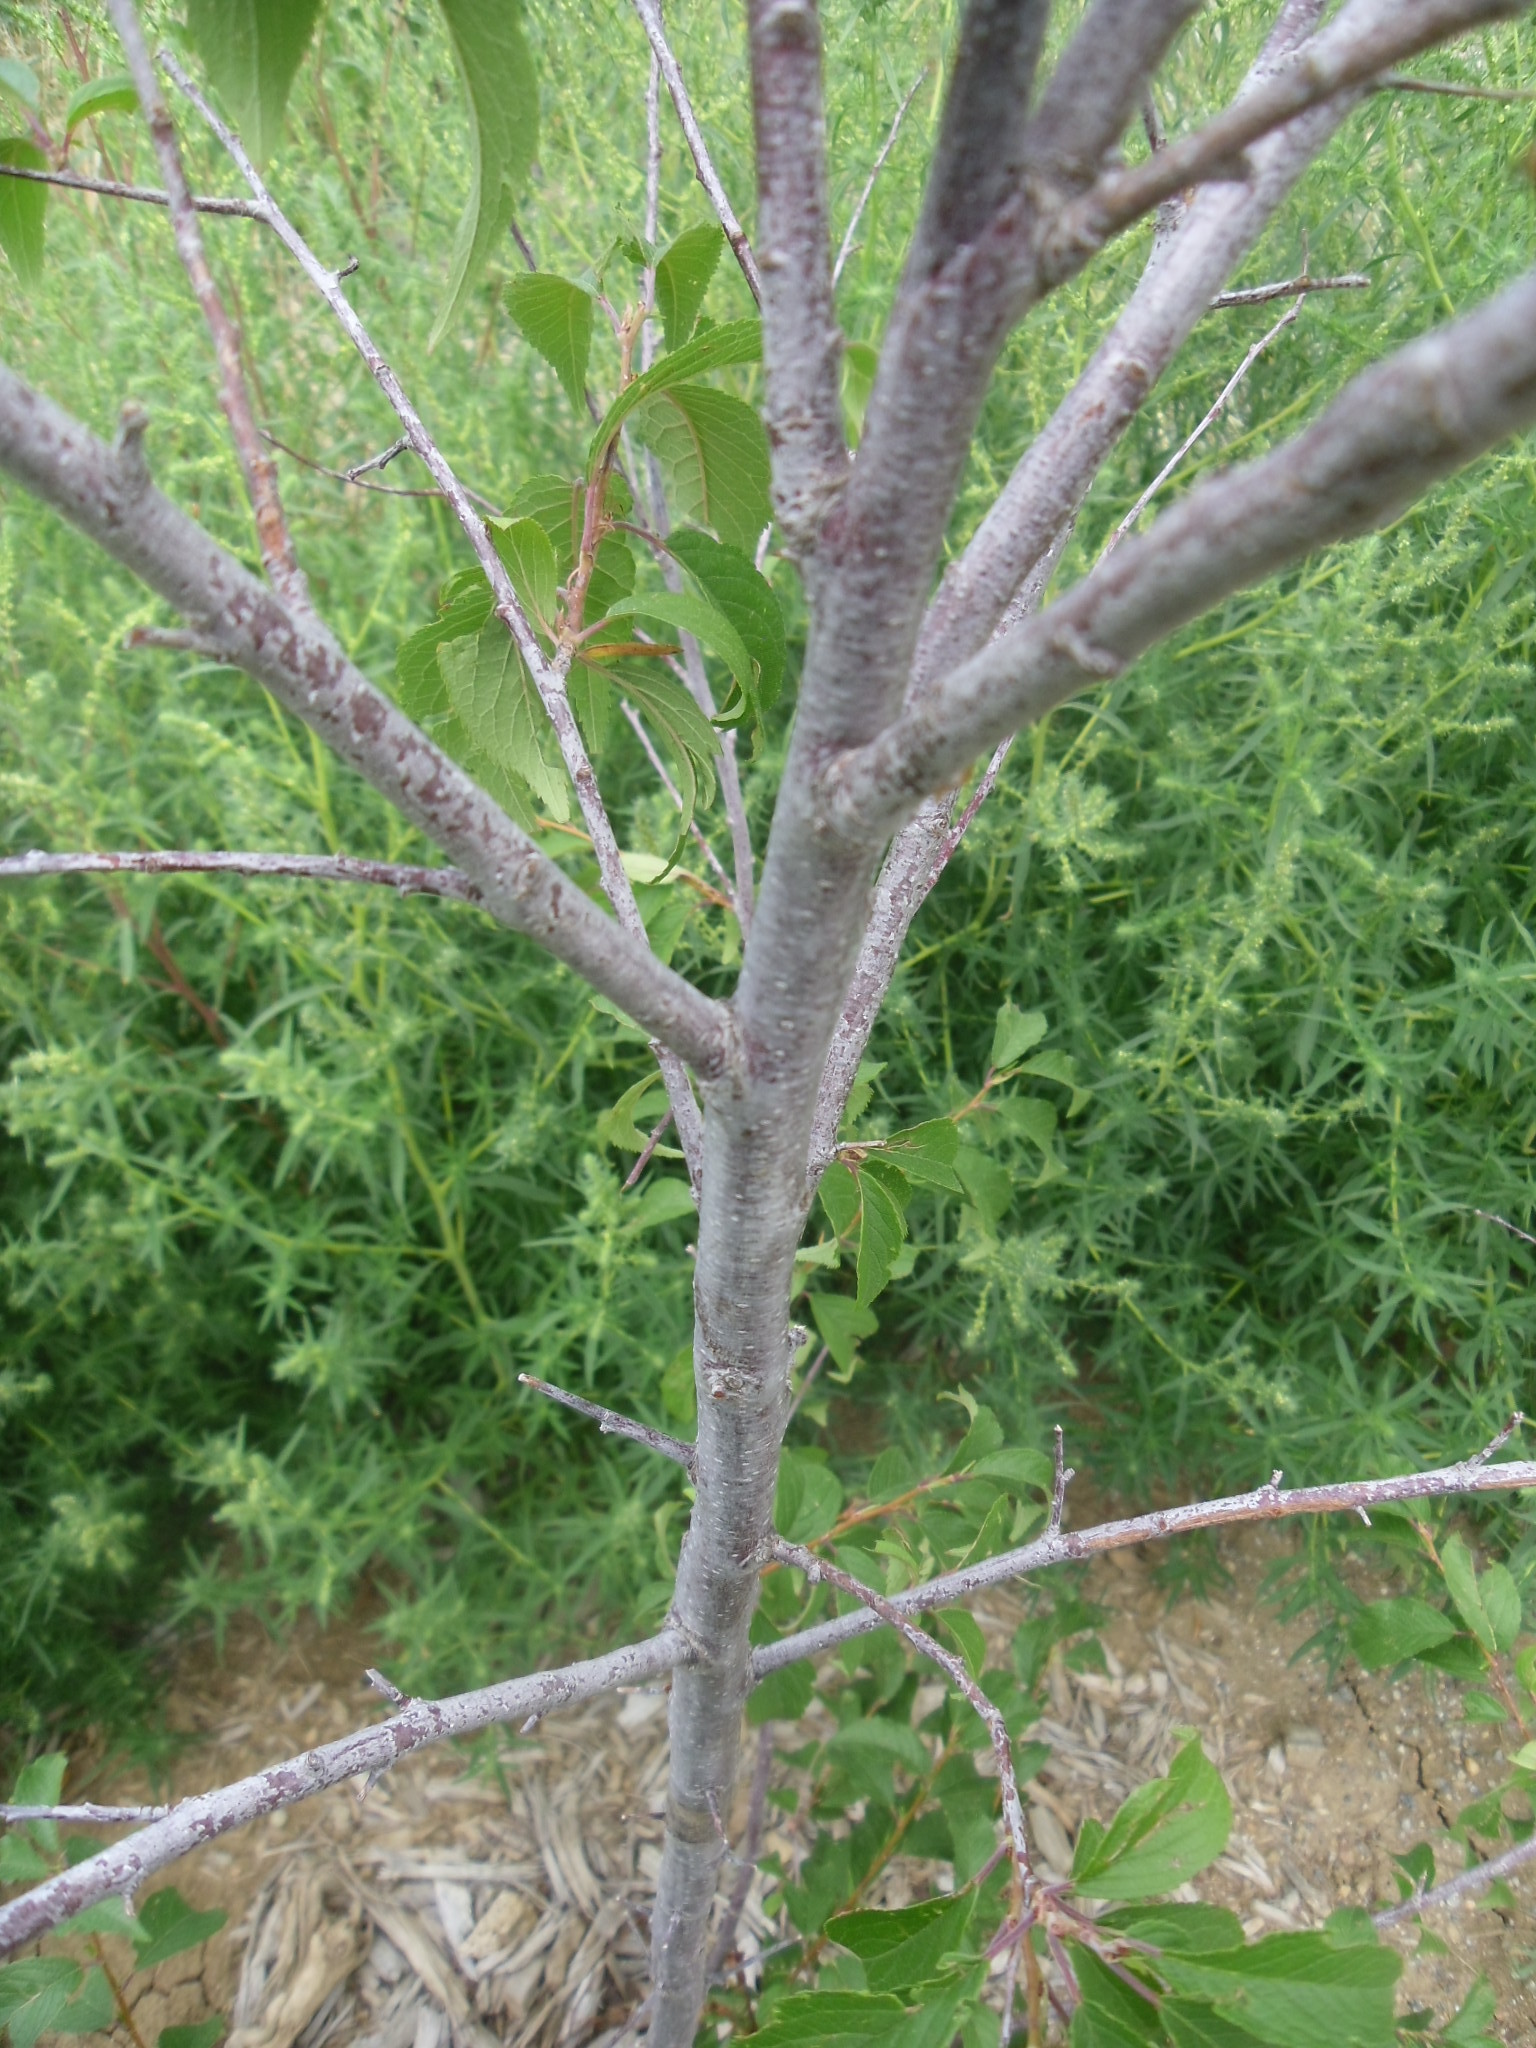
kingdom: Plantae
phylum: Tracheophyta
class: Magnoliopsida
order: Rosales
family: Rosaceae
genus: Prunus
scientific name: Prunus americana
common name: American plum
